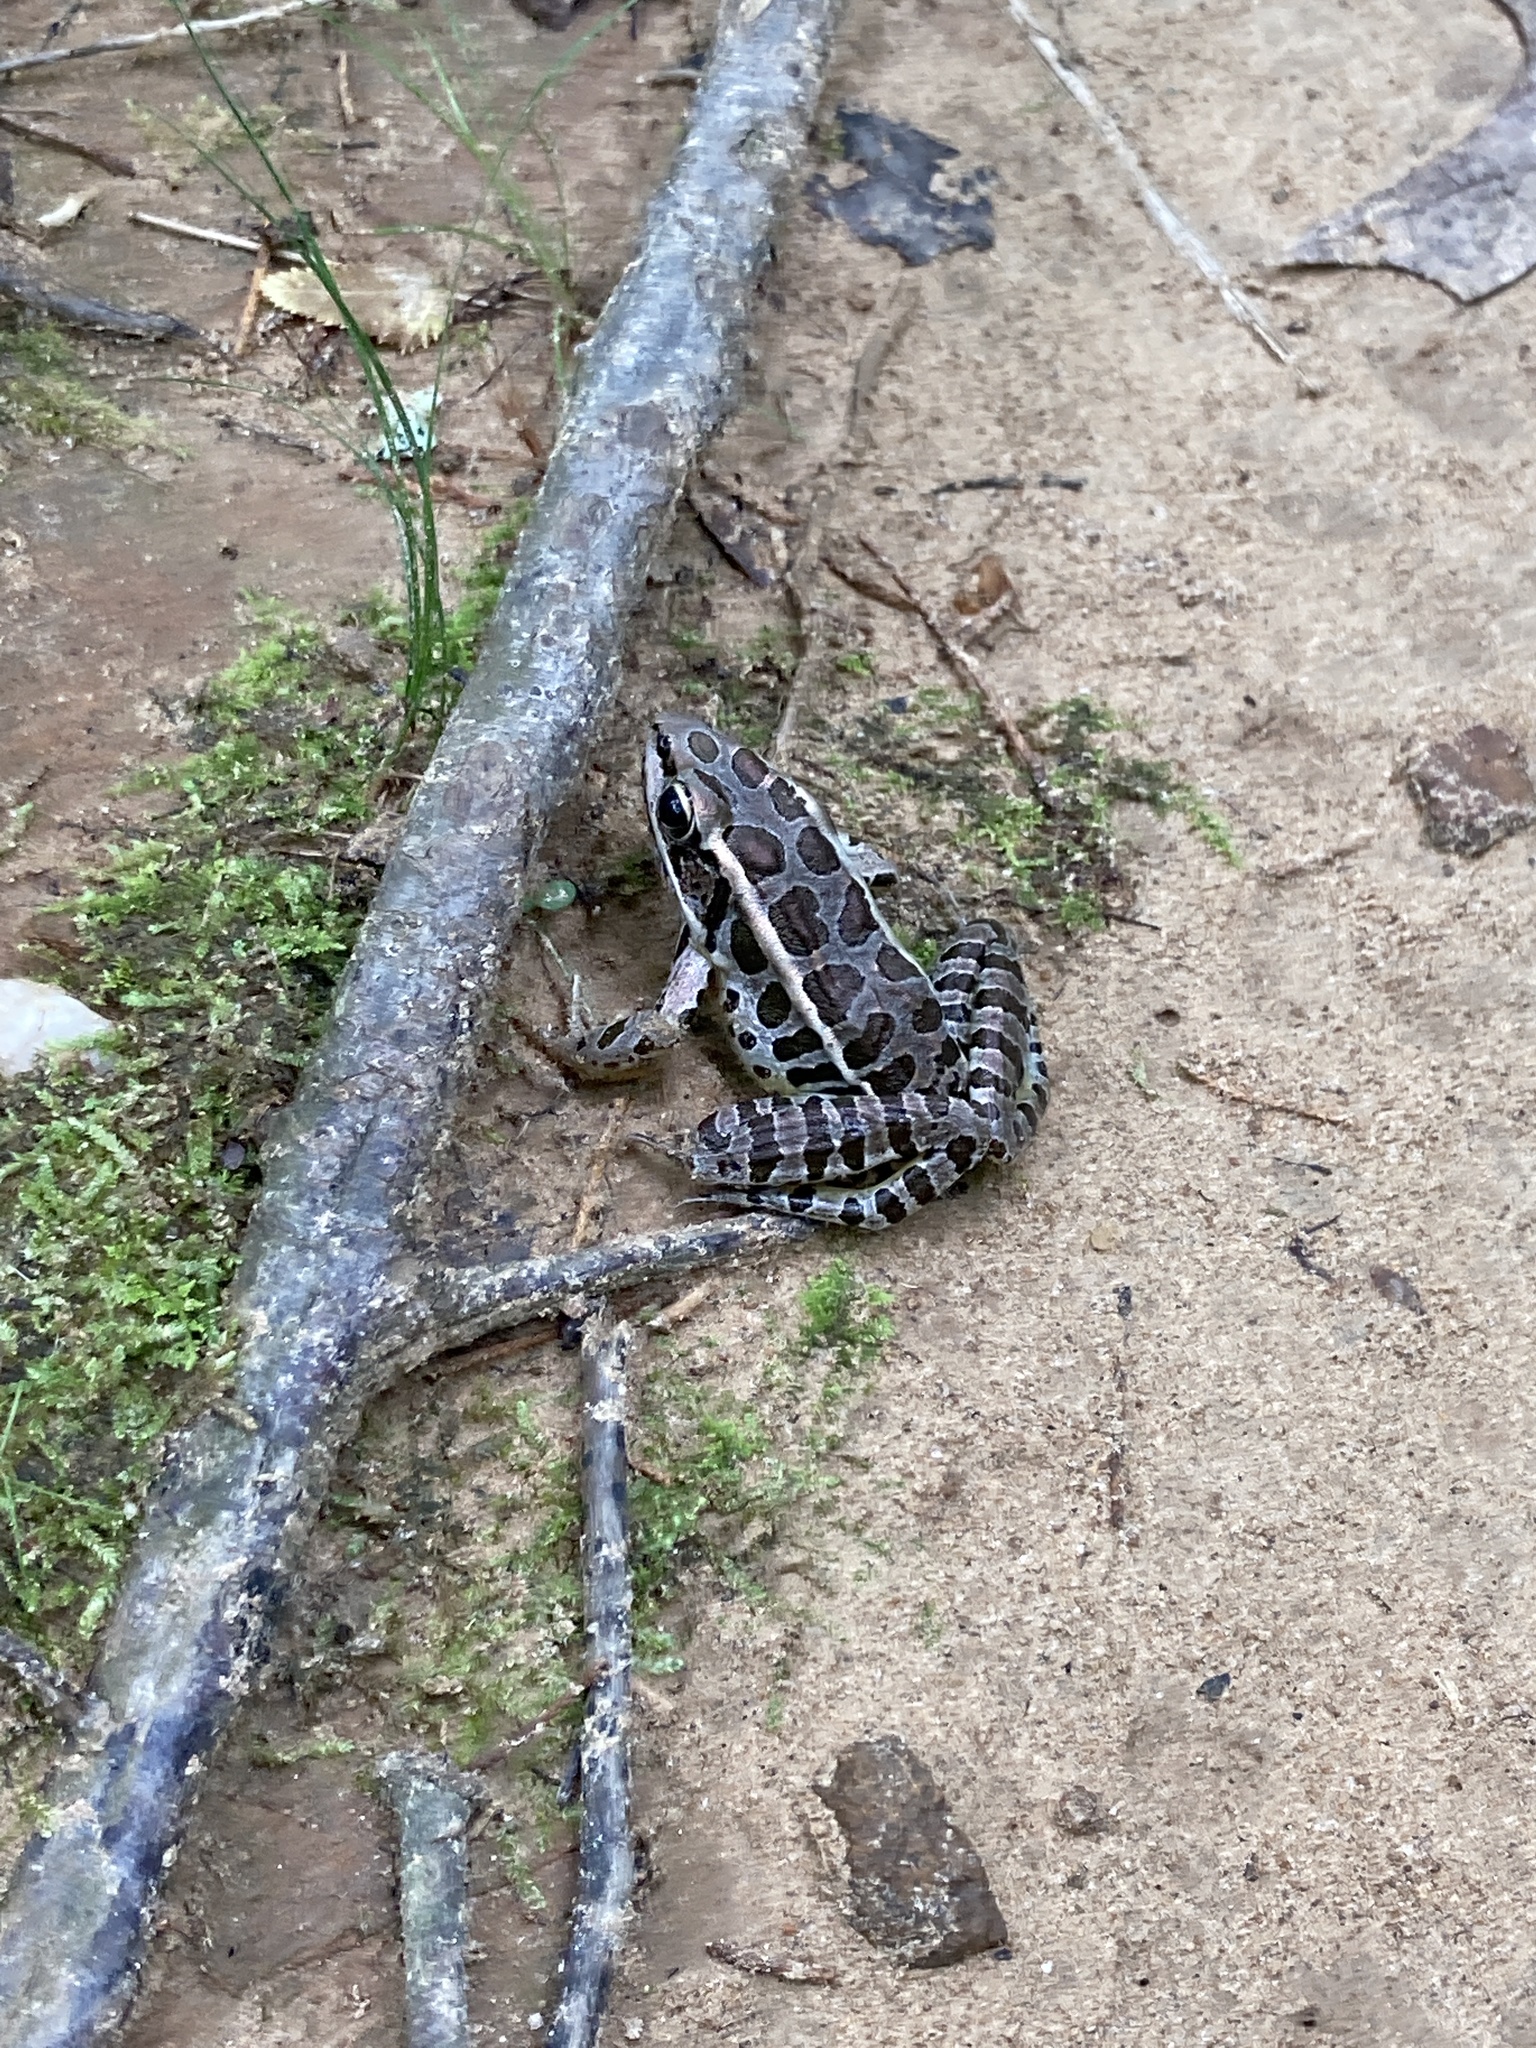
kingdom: Animalia
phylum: Chordata
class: Amphibia
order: Anura
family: Ranidae
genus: Lithobates
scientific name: Lithobates palustris
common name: Pickerel frog
